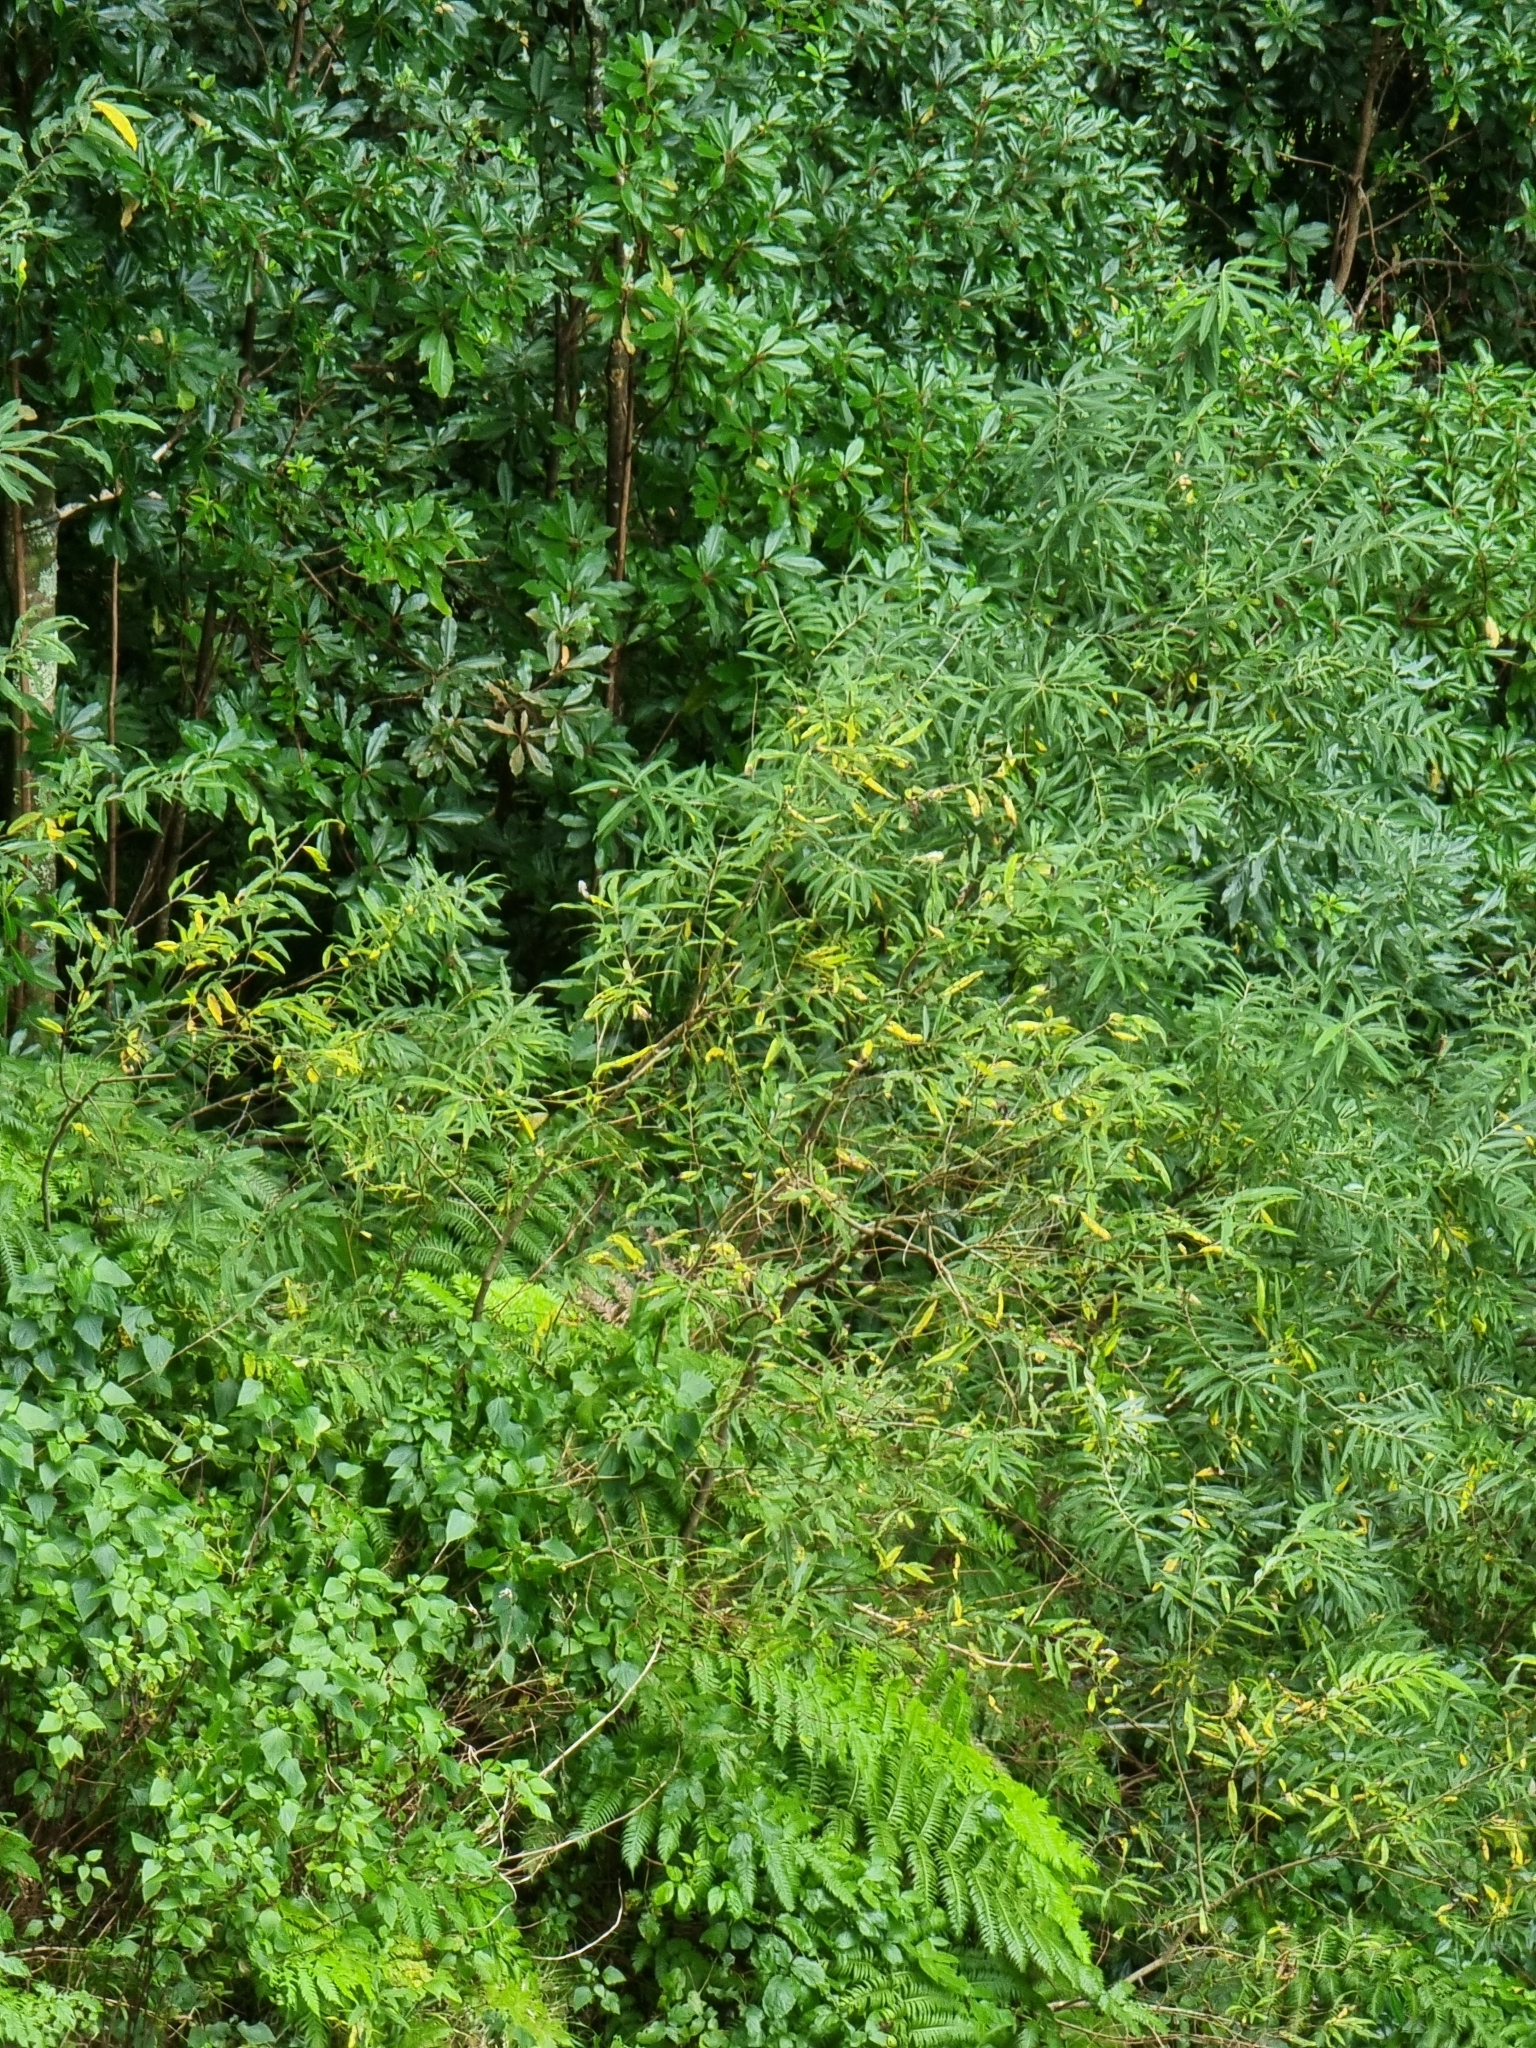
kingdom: Plantae
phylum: Tracheophyta
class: Magnoliopsida
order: Malpighiales
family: Salicaceae
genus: Salix
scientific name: Salix canariensis
